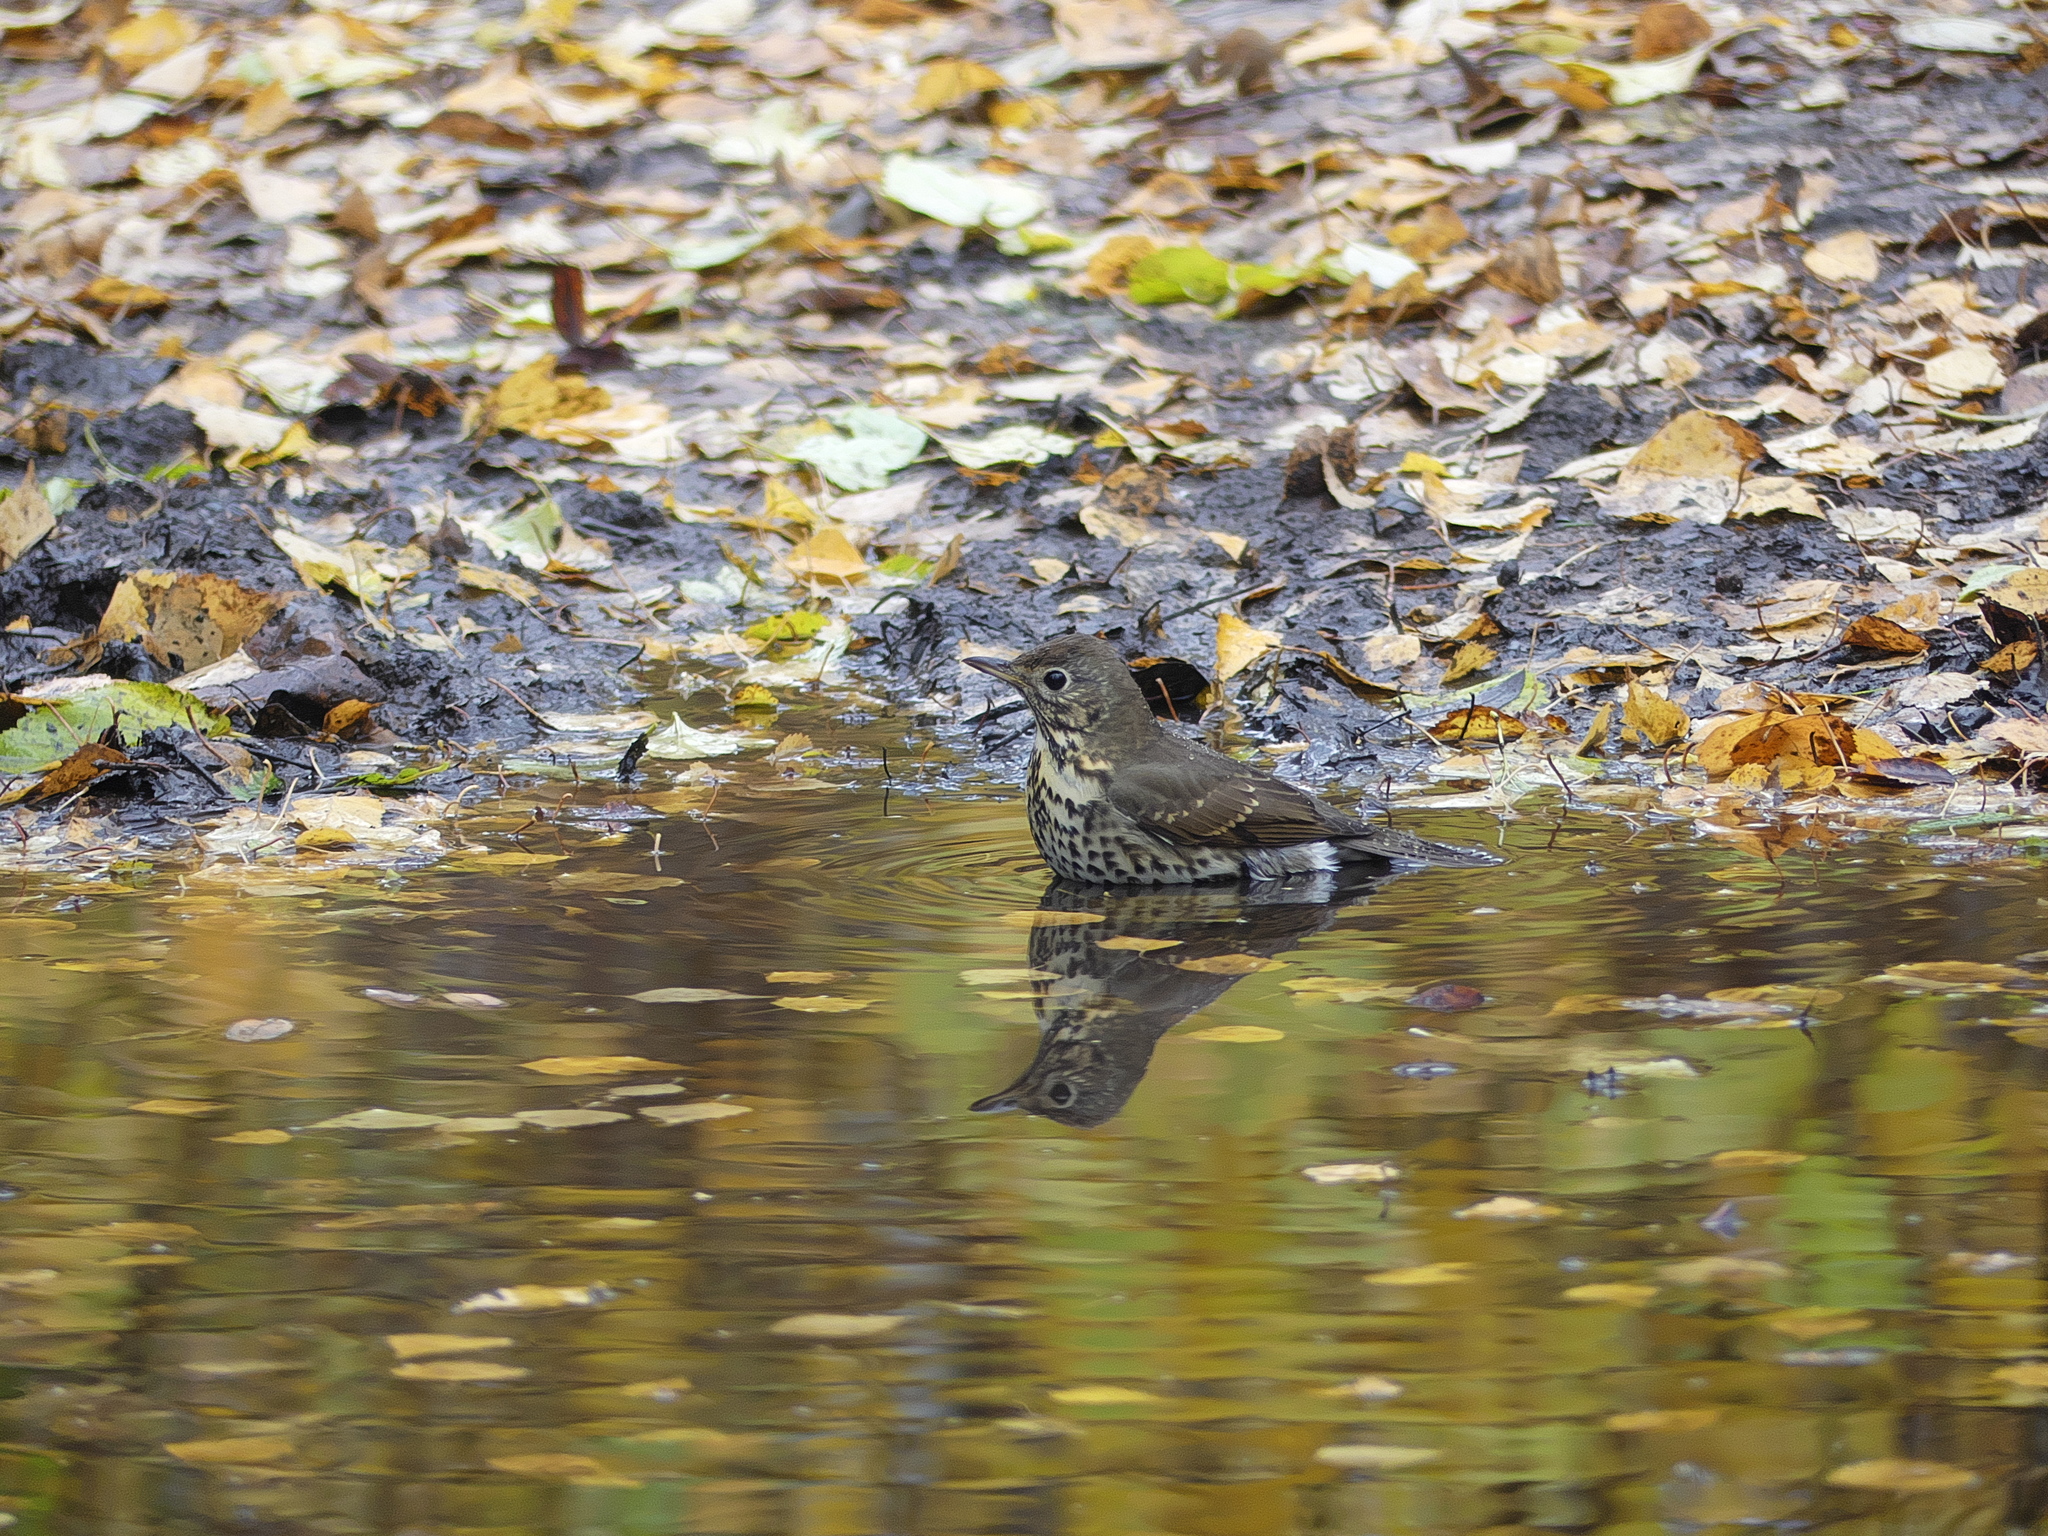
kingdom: Animalia
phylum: Chordata
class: Aves
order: Passeriformes
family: Turdidae
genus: Turdus
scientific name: Turdus philomelos
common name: Song thrush
